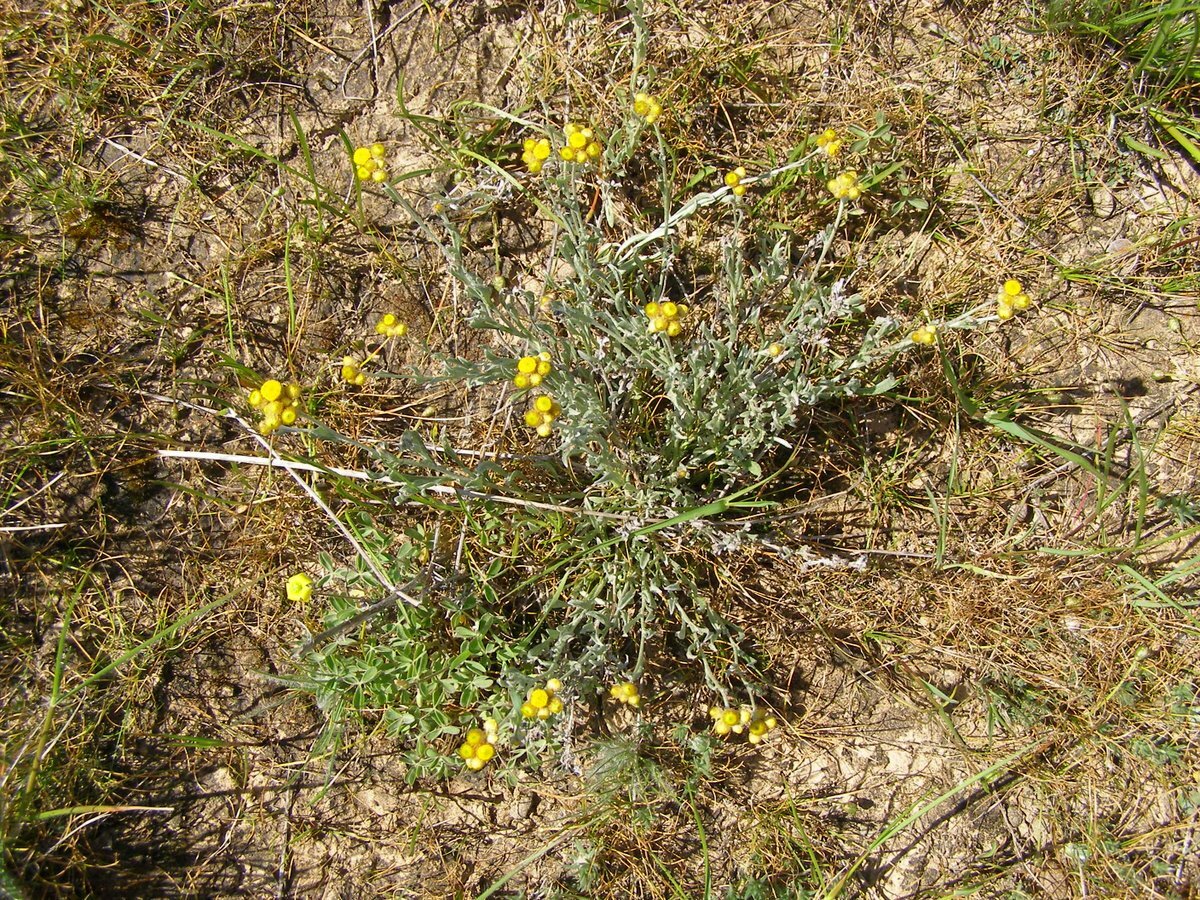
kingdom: Plantae
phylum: Tracheophyta
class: Magnoliopsida
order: Asterales
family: Asteraceae
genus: Chrysocephalum
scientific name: Chrysocephalum apiculatum
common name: Common everlasting
